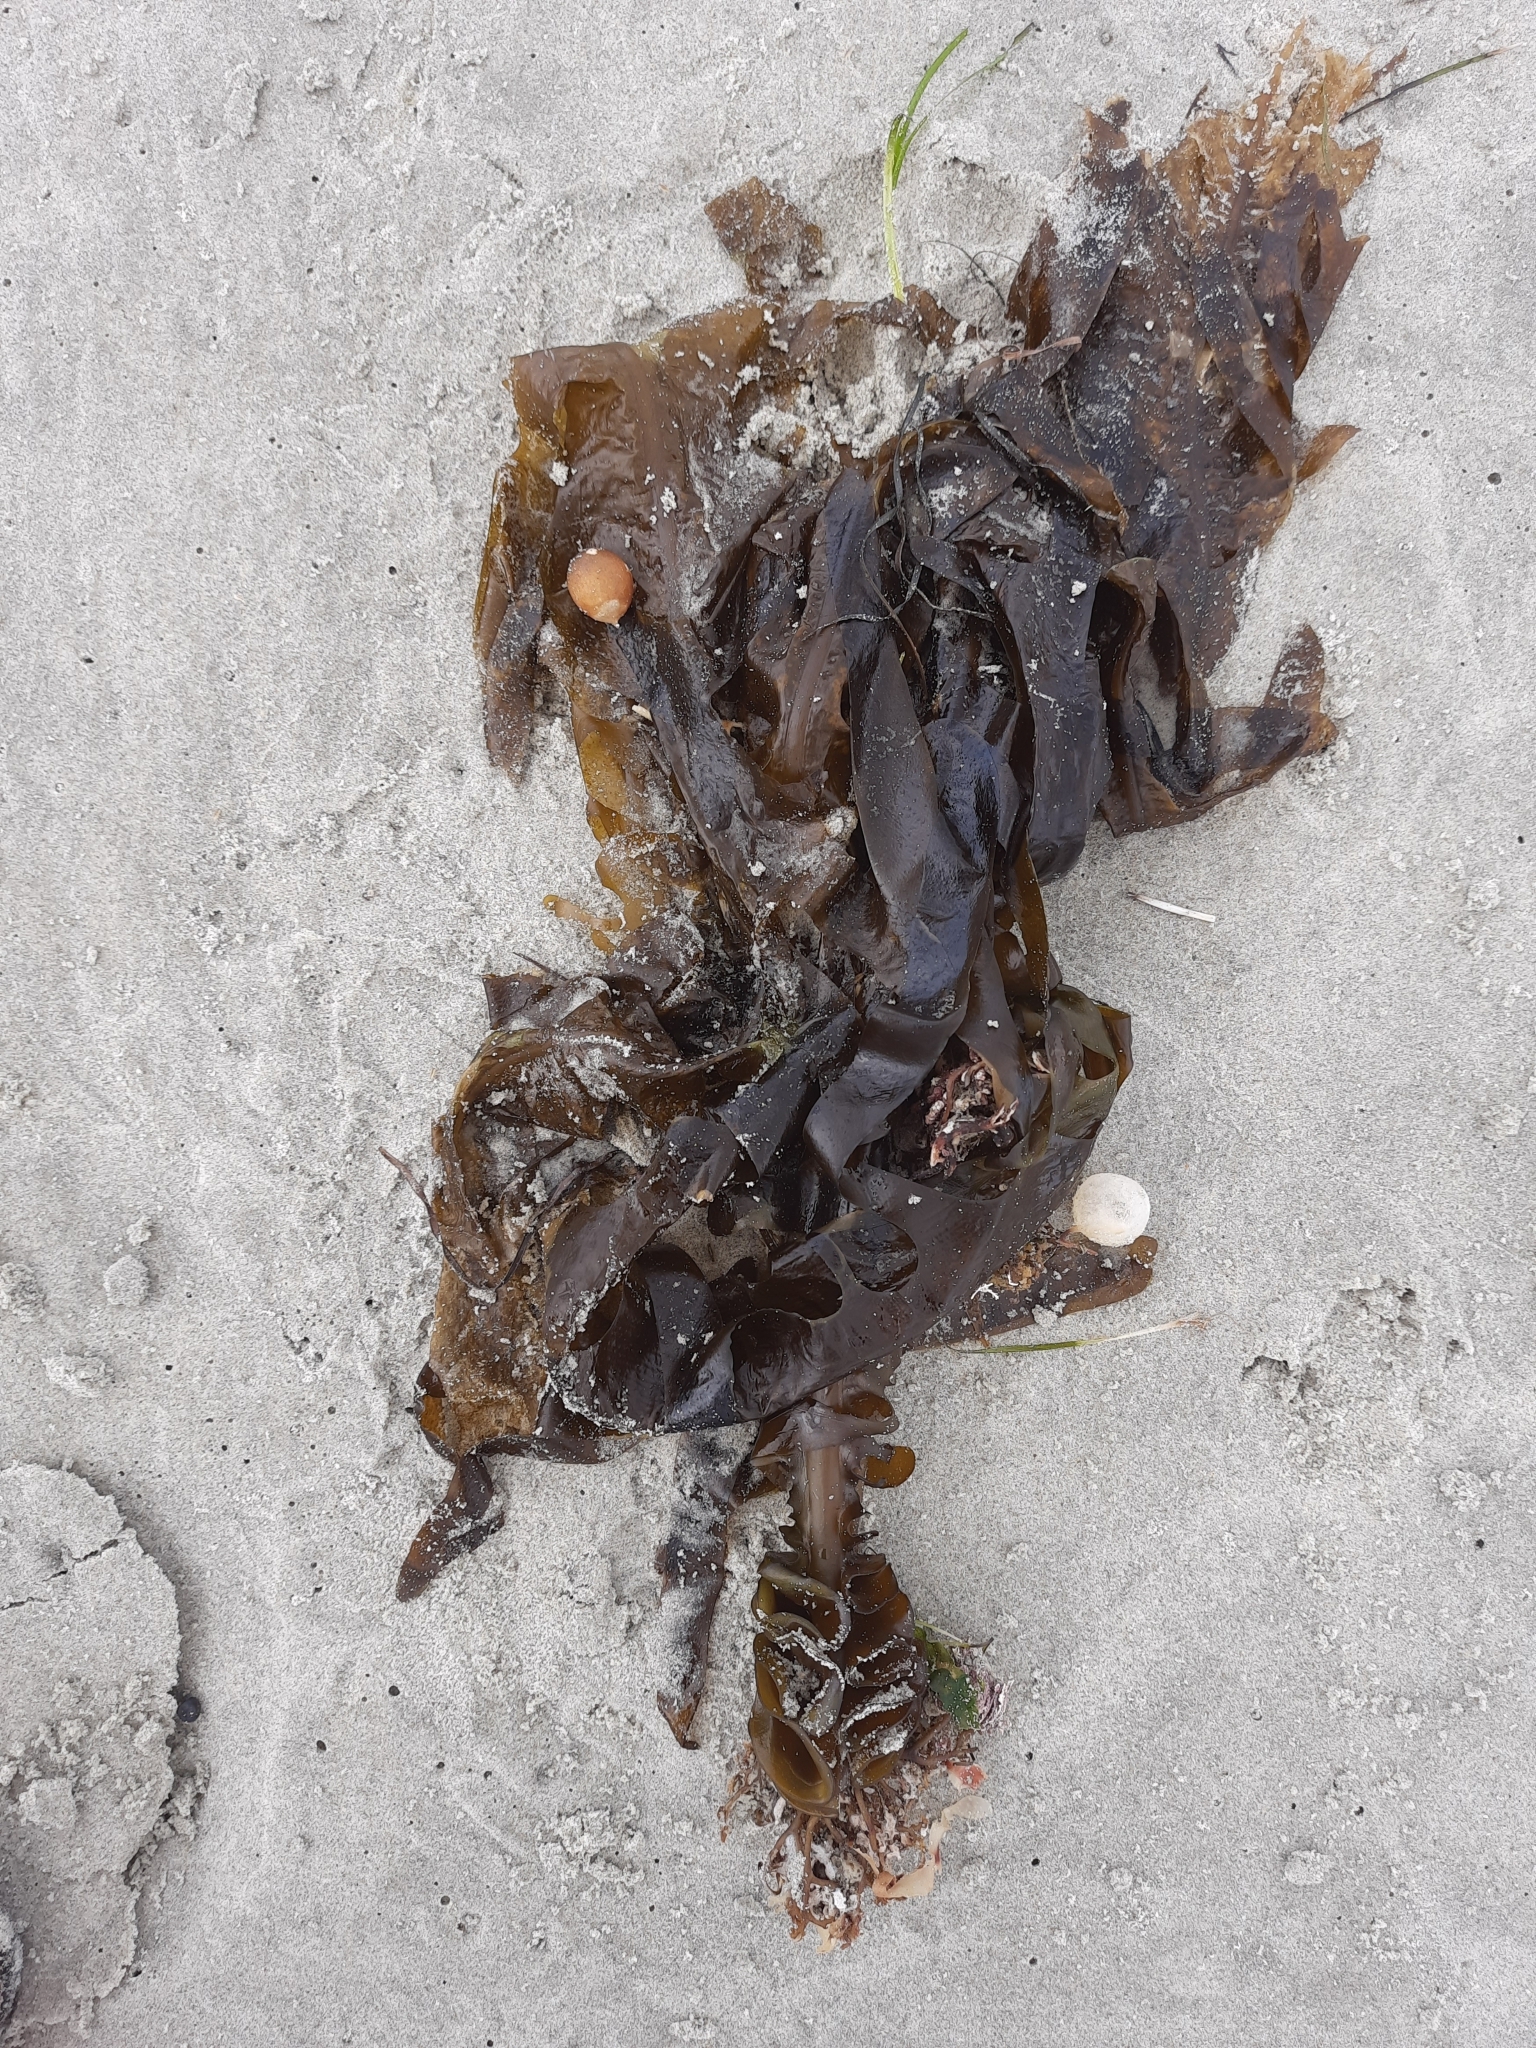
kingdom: Chromista
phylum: Ochrophyta
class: Phaeophyceae
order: Laminariales
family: Alariaceae
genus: Undaria
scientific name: Undaria pinnatifida
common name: Asian kelp
